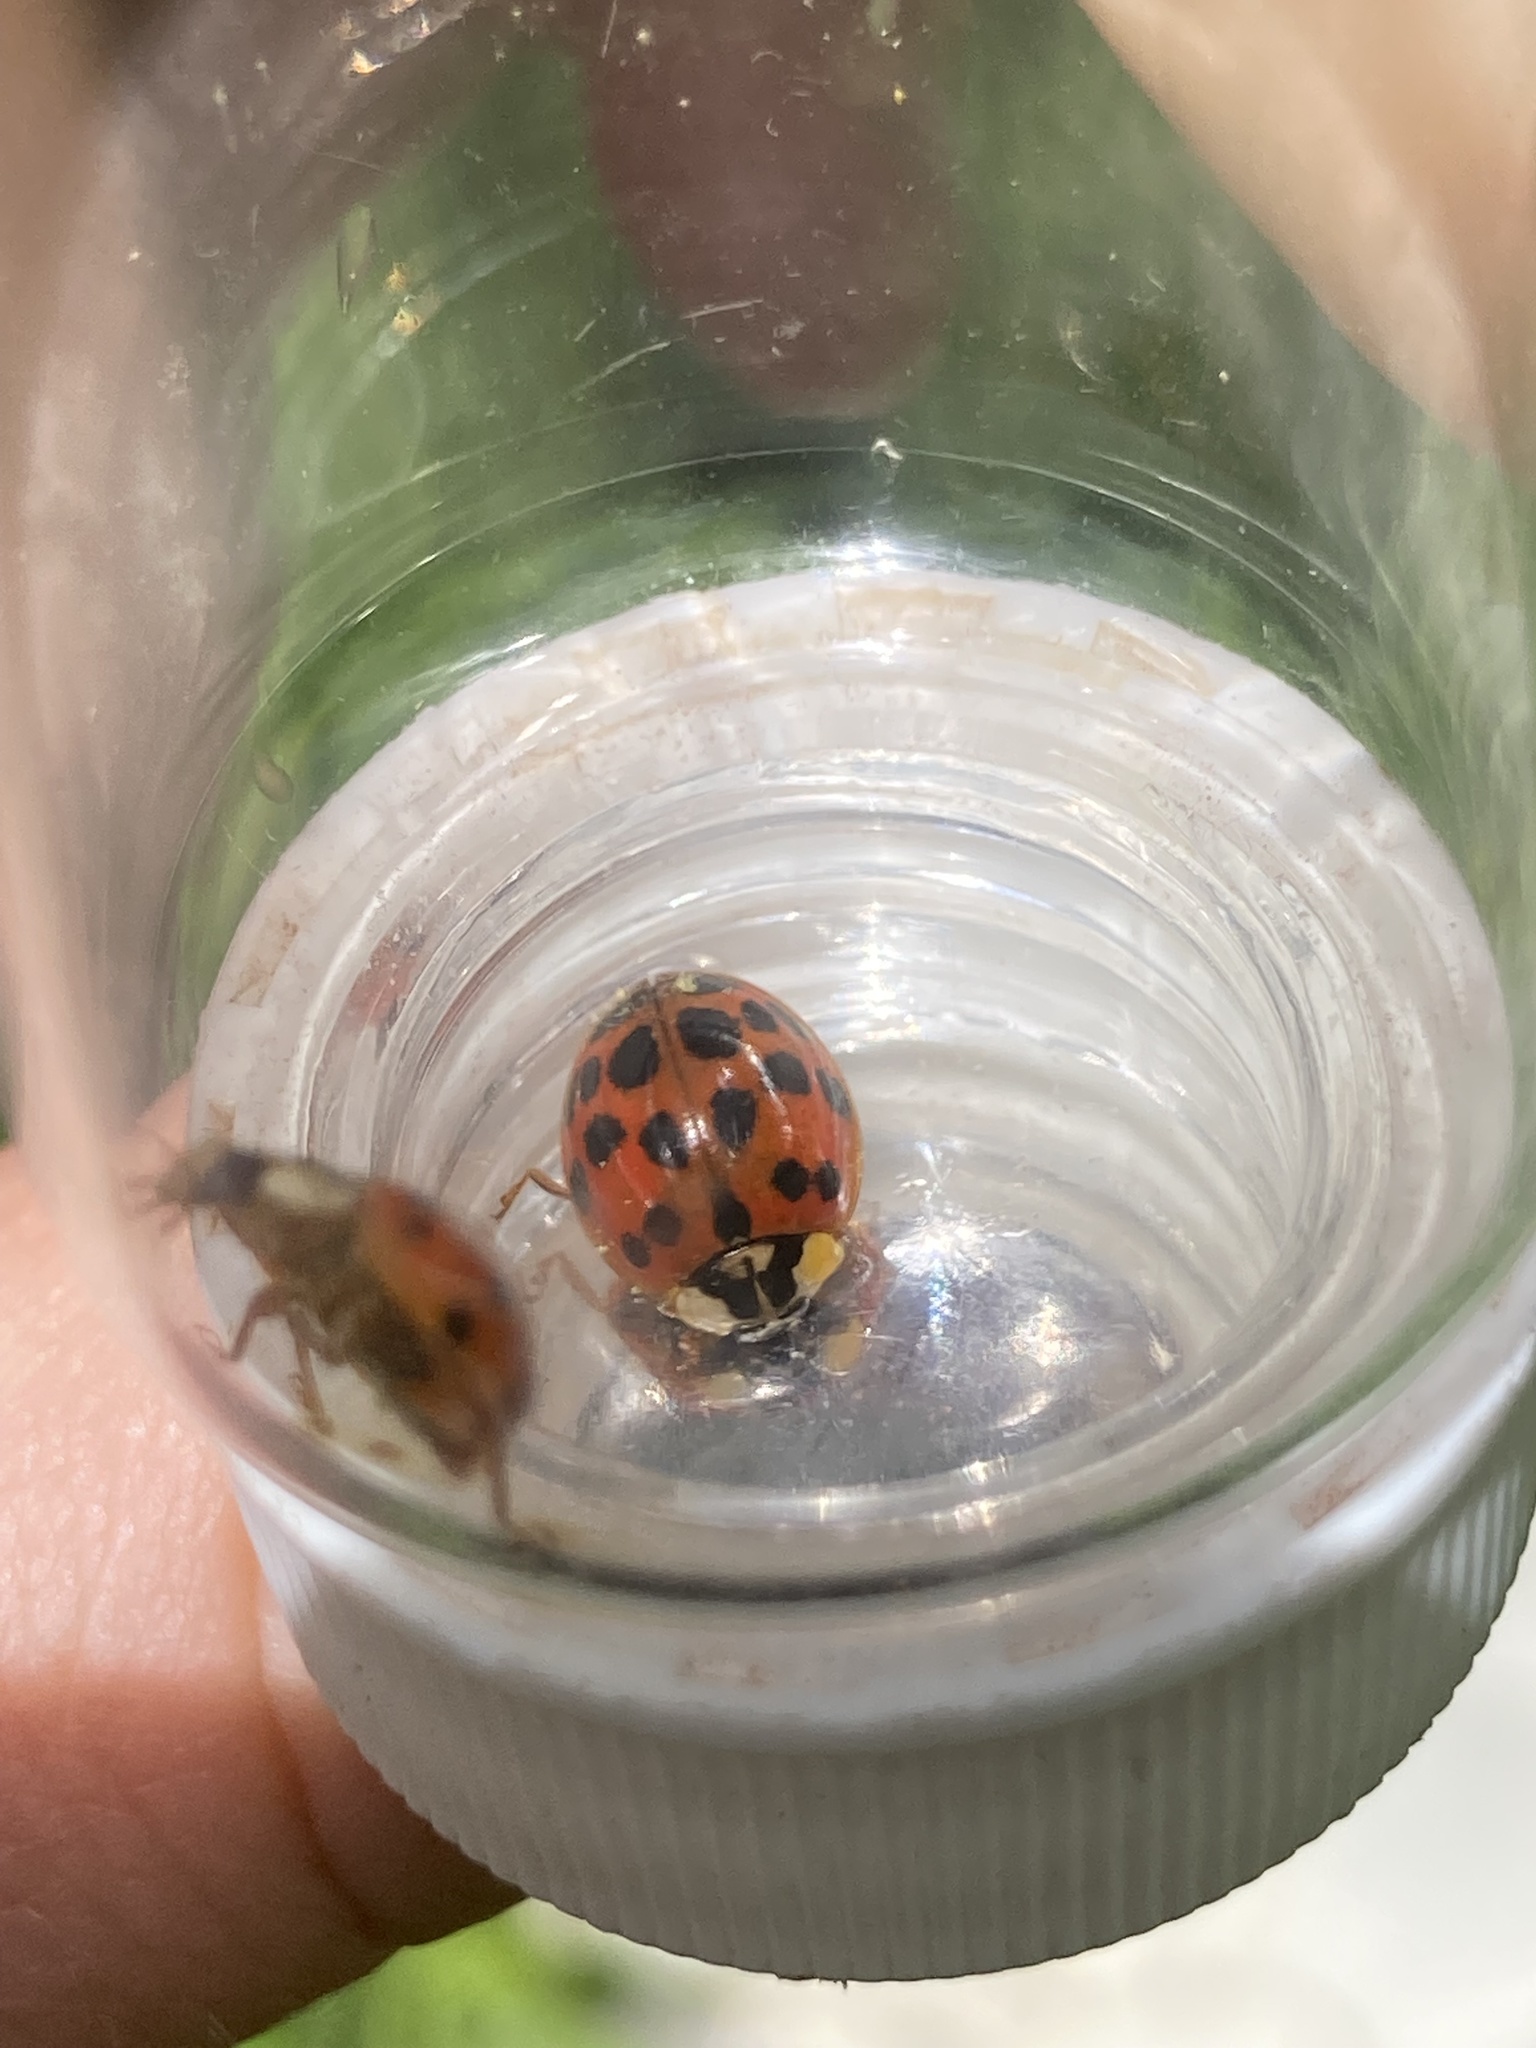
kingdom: Animalia
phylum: Arthropoda
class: Insecta
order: Coleoptera
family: Coccinellidae
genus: Harmonia
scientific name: Harmonia axyridis
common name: Harlequin ladybird
